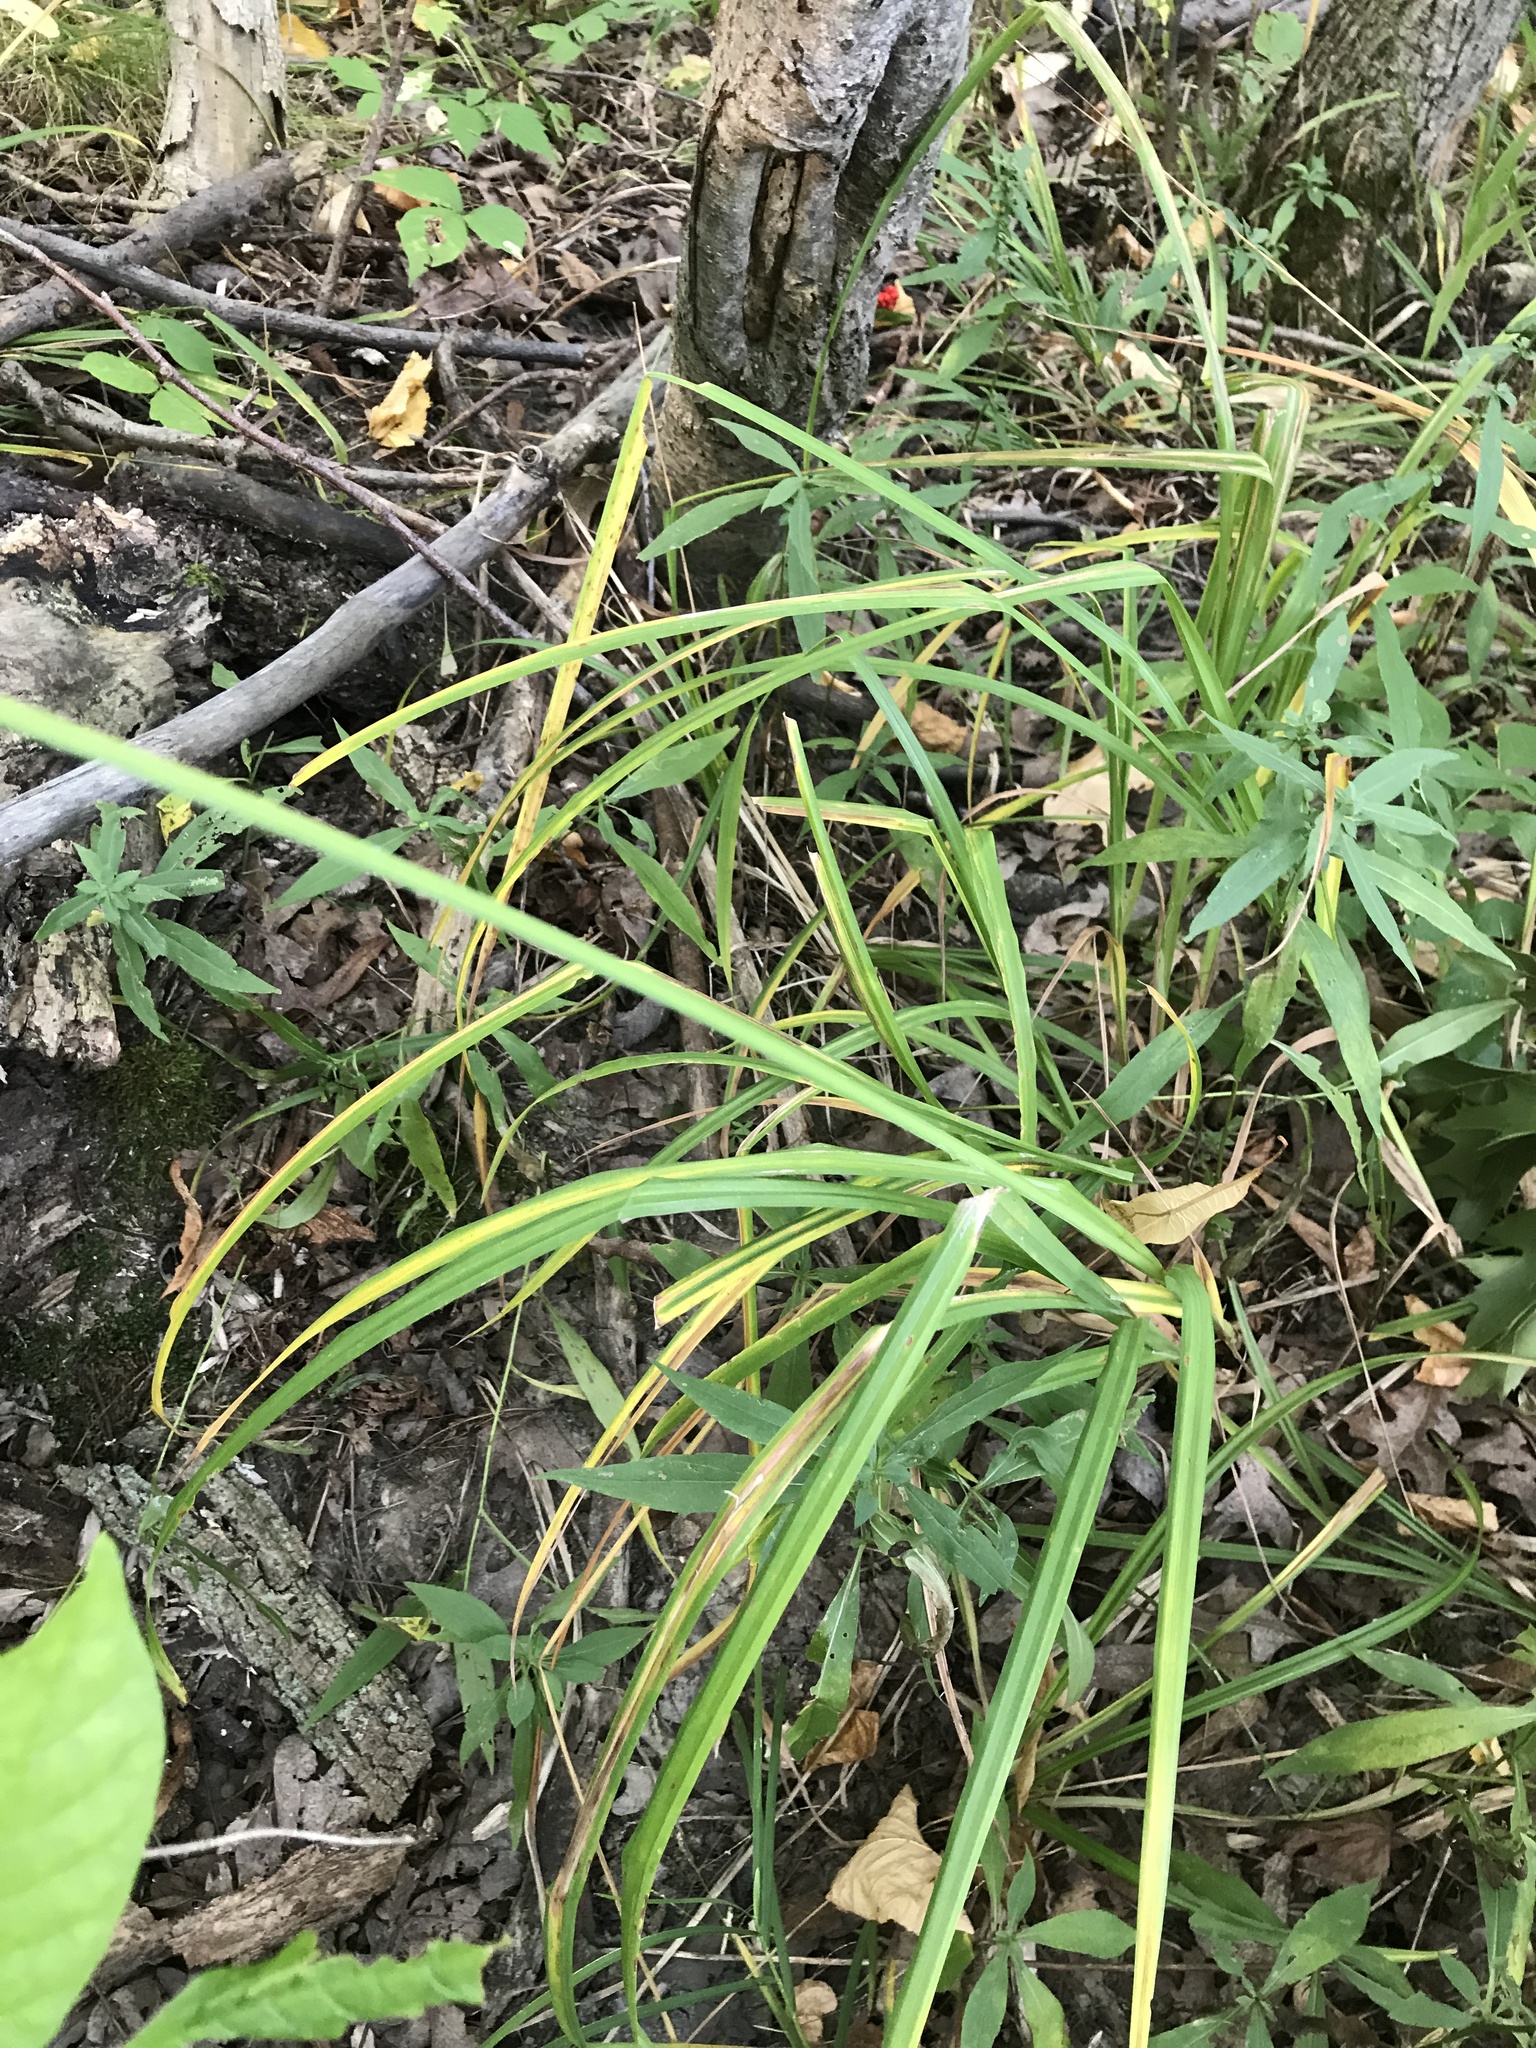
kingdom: Plantae
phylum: Tracheophyta
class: Liliopsida
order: Poales
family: Cyperaceae
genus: Carex
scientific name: Carex crinita
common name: Fringed sedge
